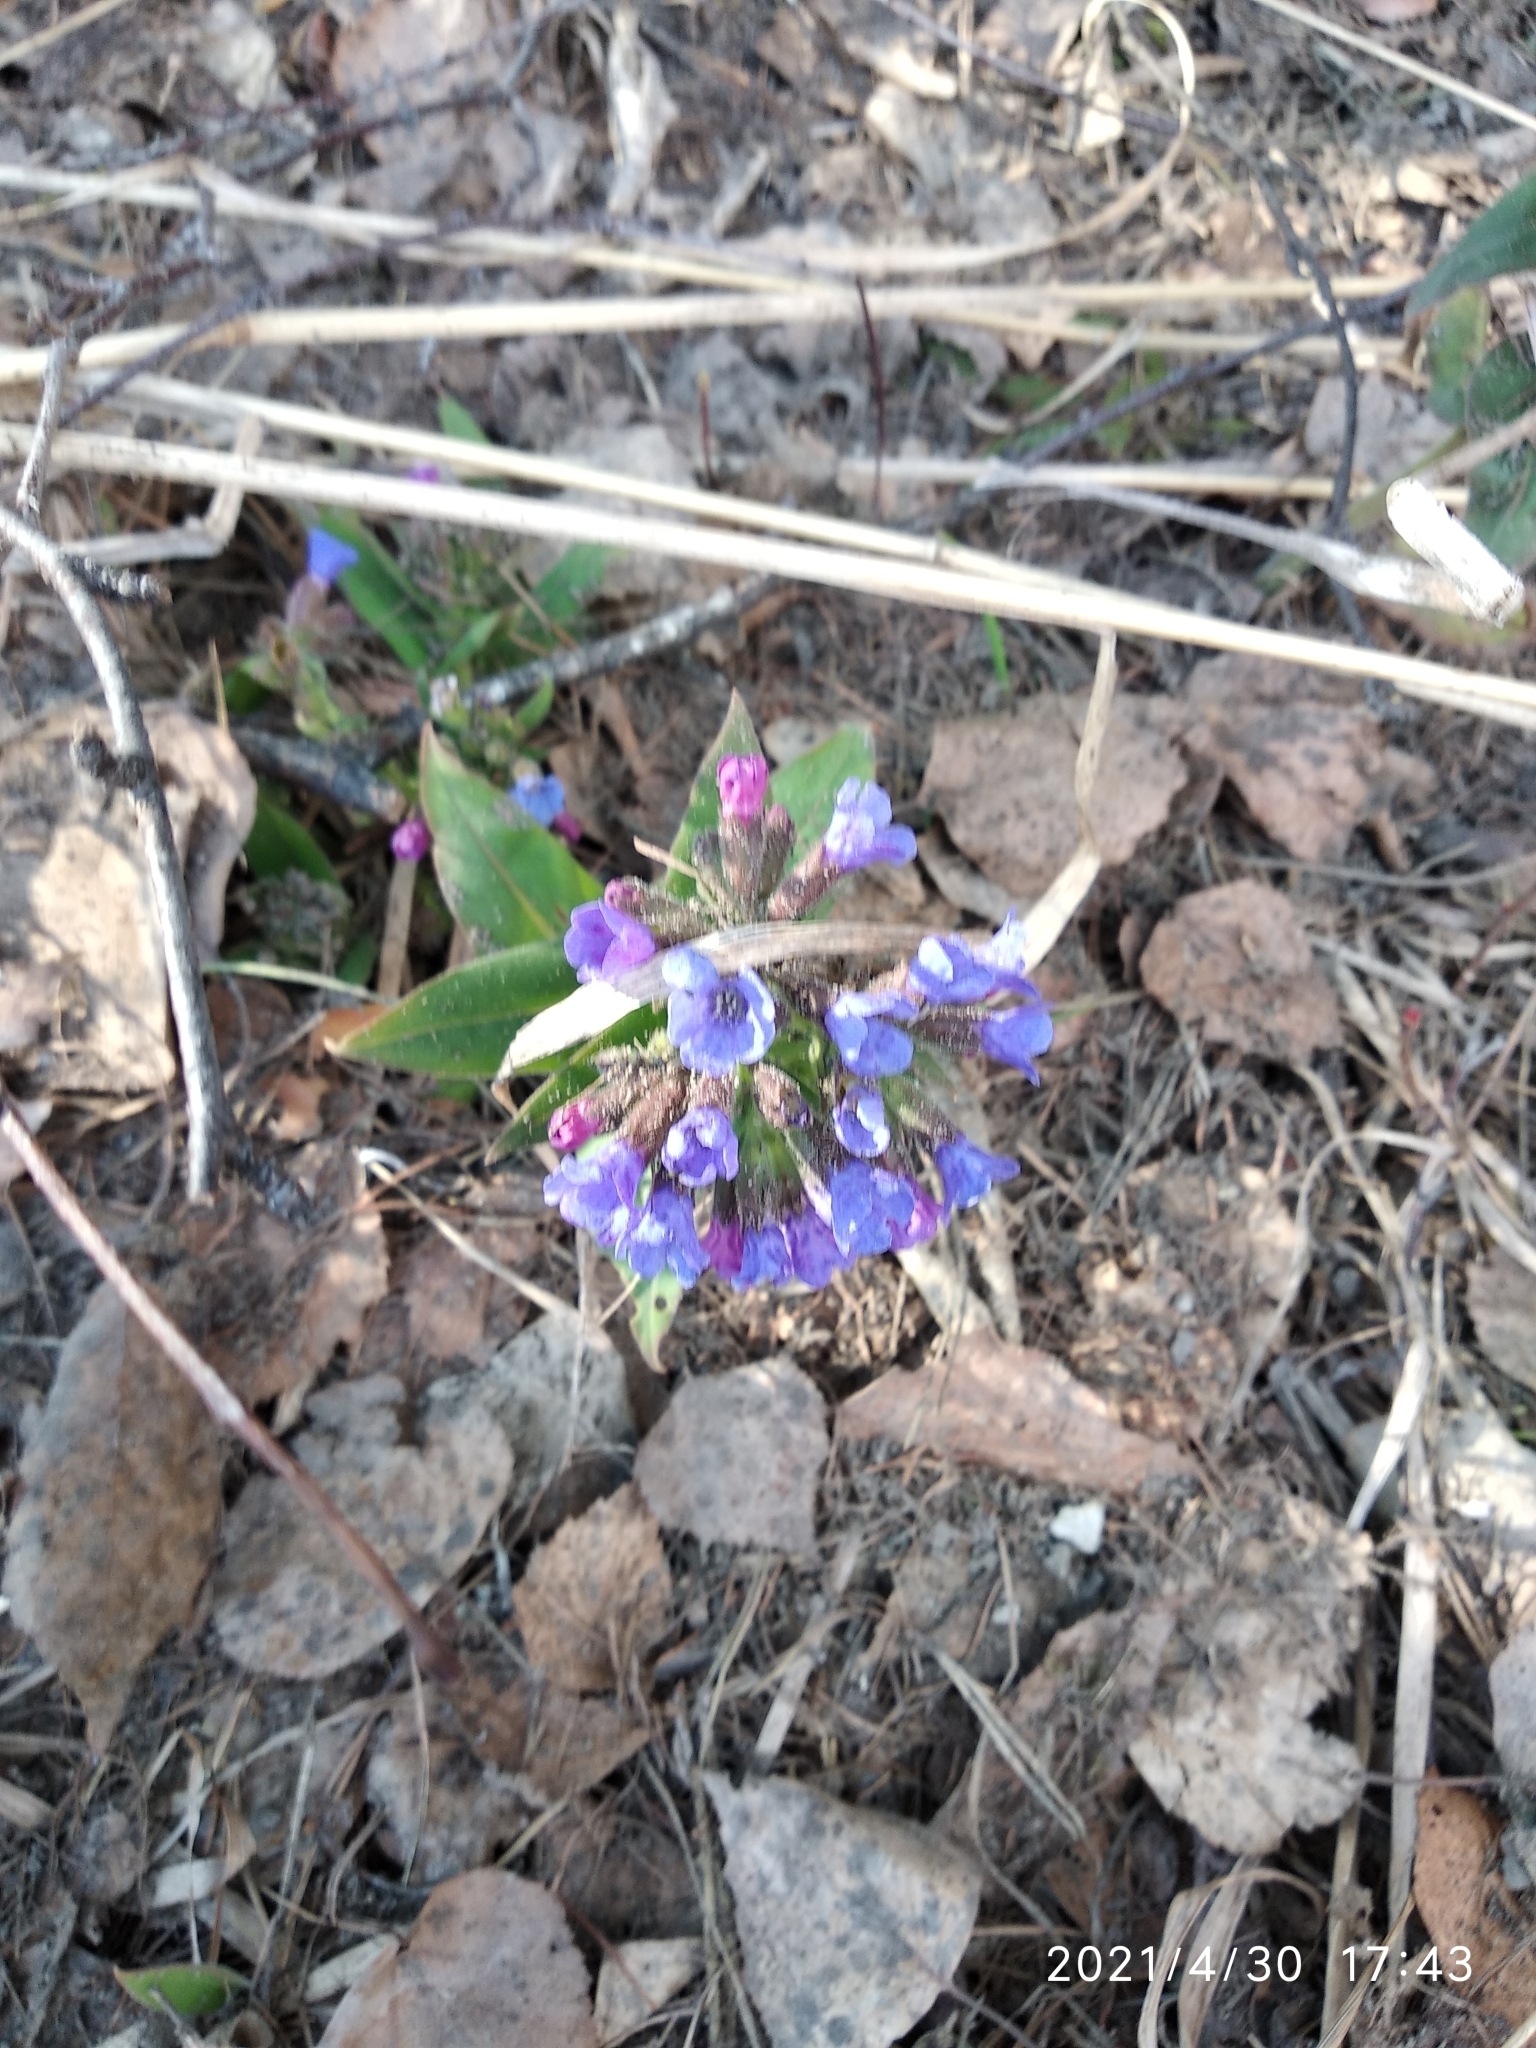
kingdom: Plantae
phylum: Tracheophyta
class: Magnoliopsida
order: Boraginales
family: Boraginaceae
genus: Pulmonaria
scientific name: Pulmonaria mollis
